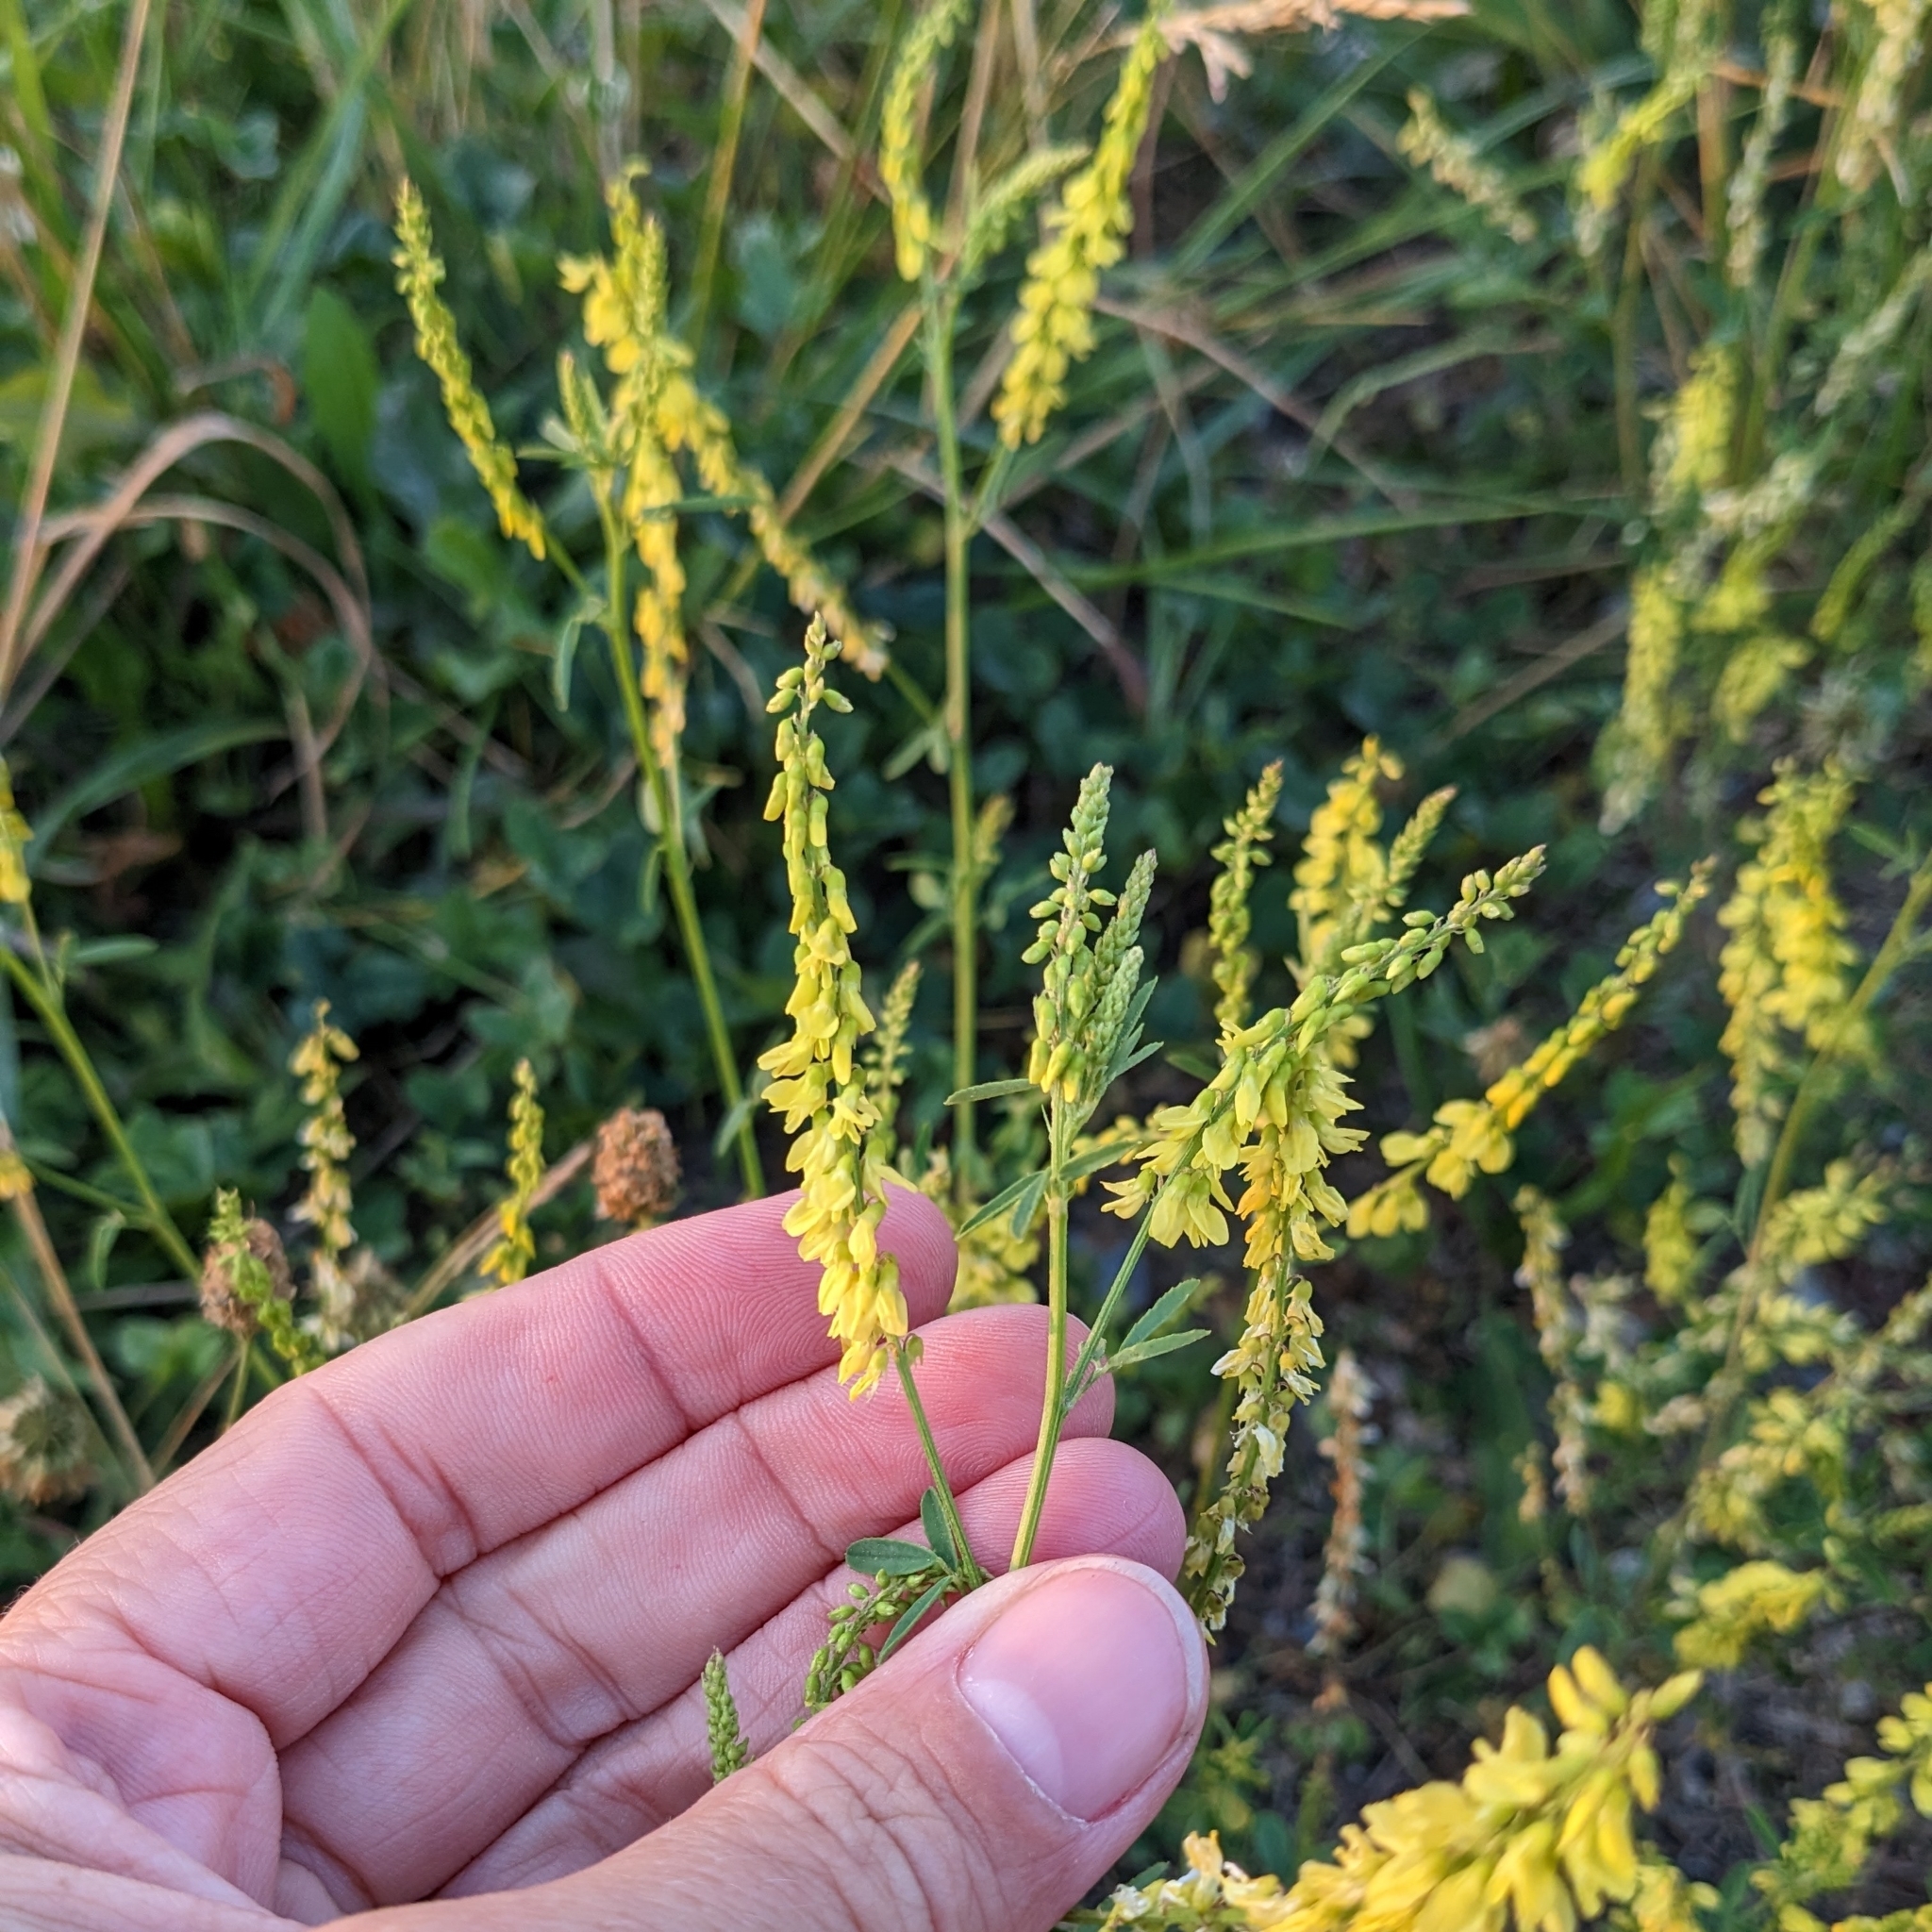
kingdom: Plantae
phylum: Tracheophyta
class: Magnoliopsida
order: Fabales
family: Fabaceae
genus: Melilotus
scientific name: Melilotus officinalis
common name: Sweetclover
